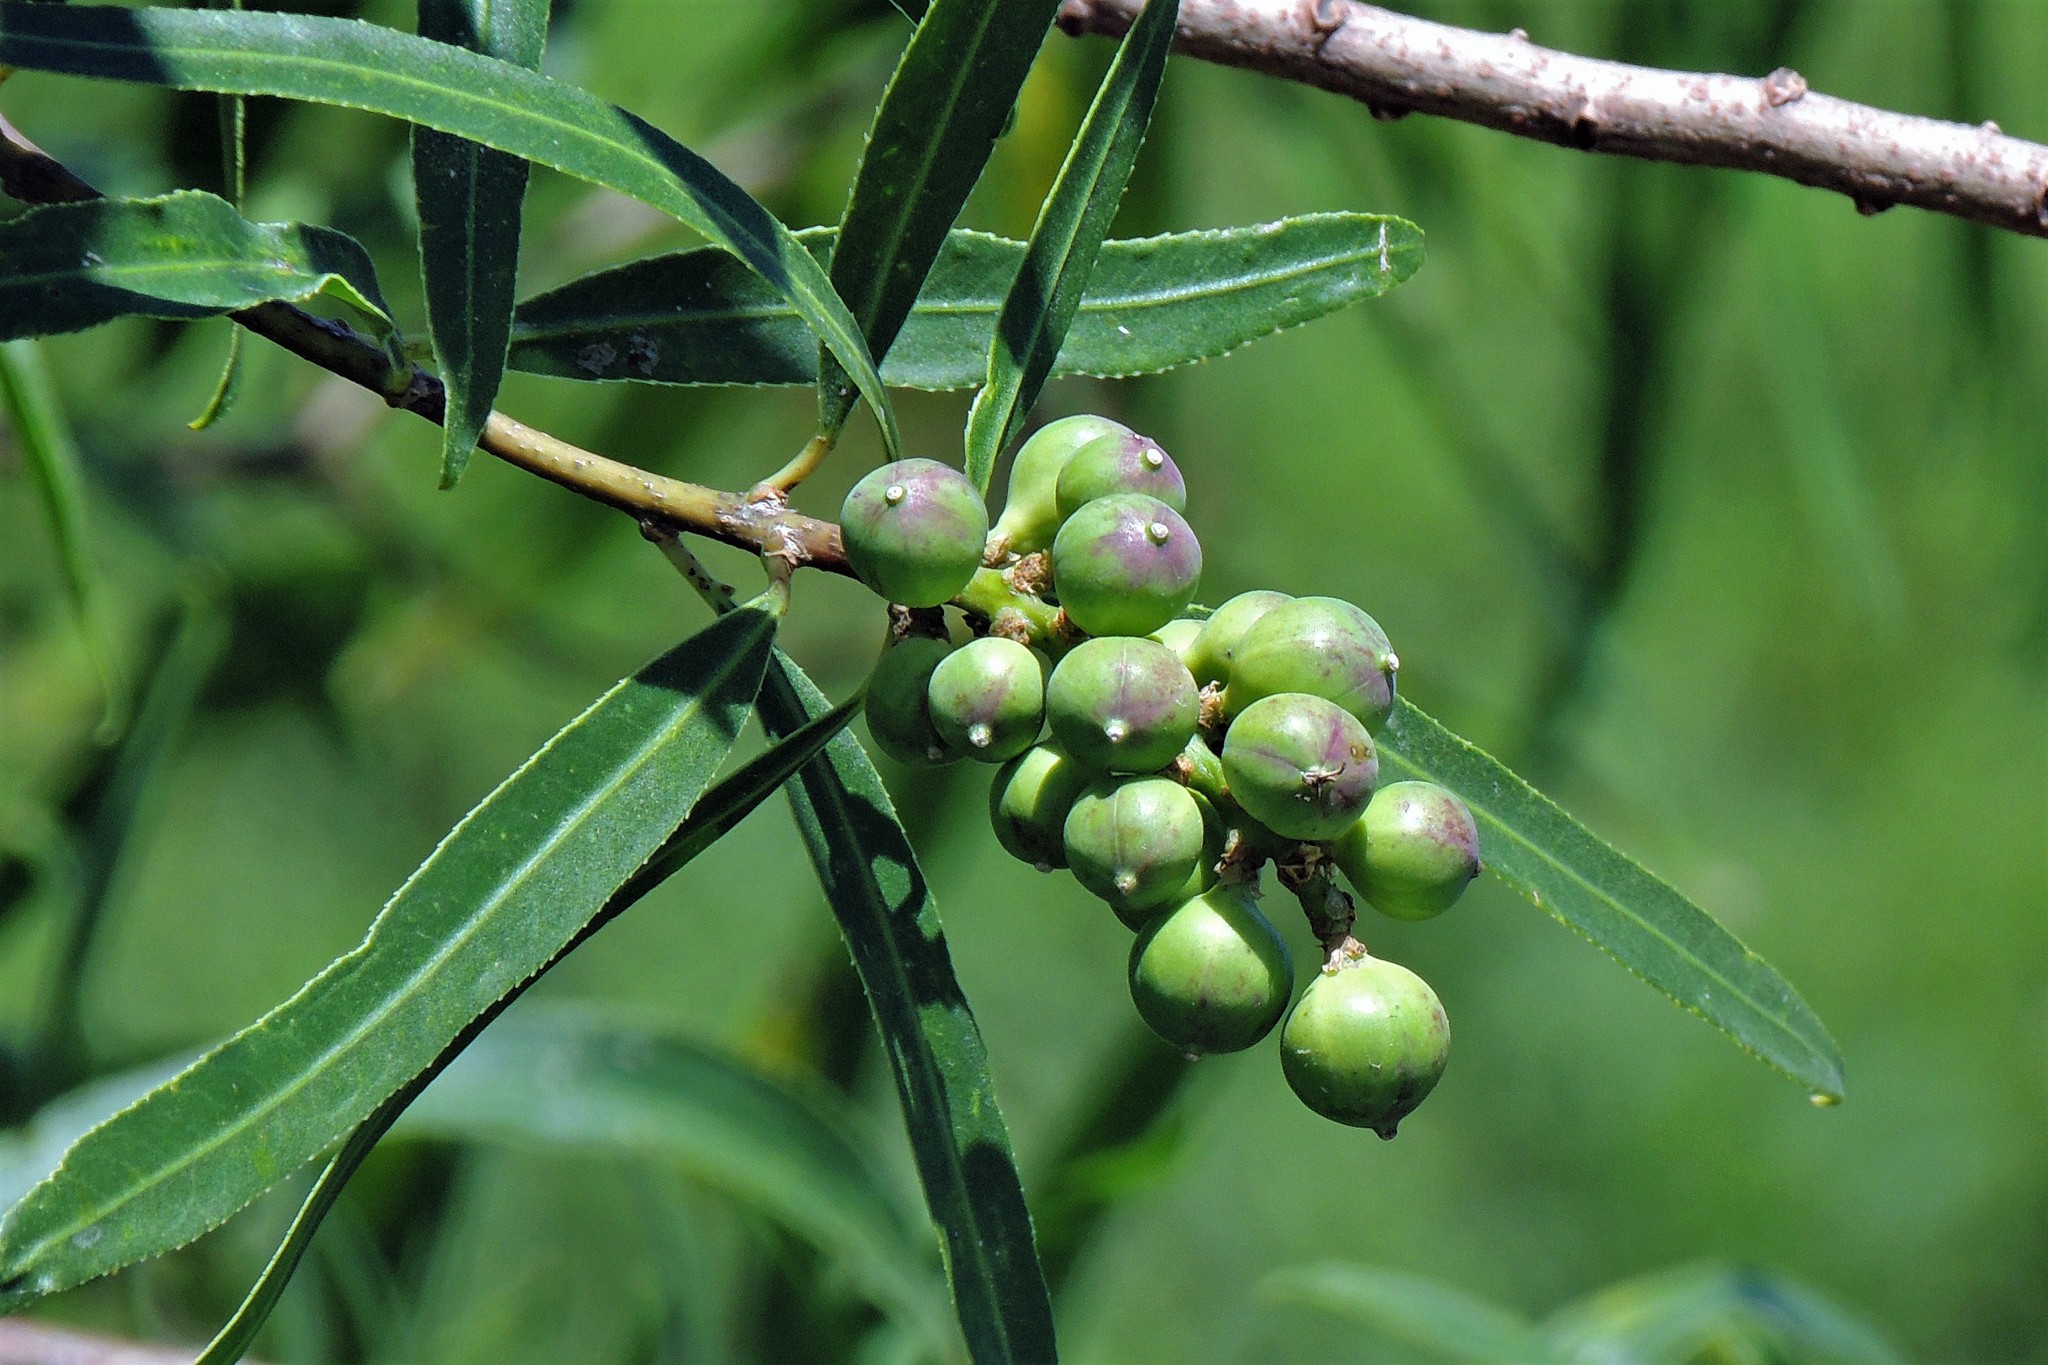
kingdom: Plantae
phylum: Tracheophyta
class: Magnoliopsida
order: Malpighiales
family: Euphorbiaceae
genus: Sapium
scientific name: Sapium haematospermum
